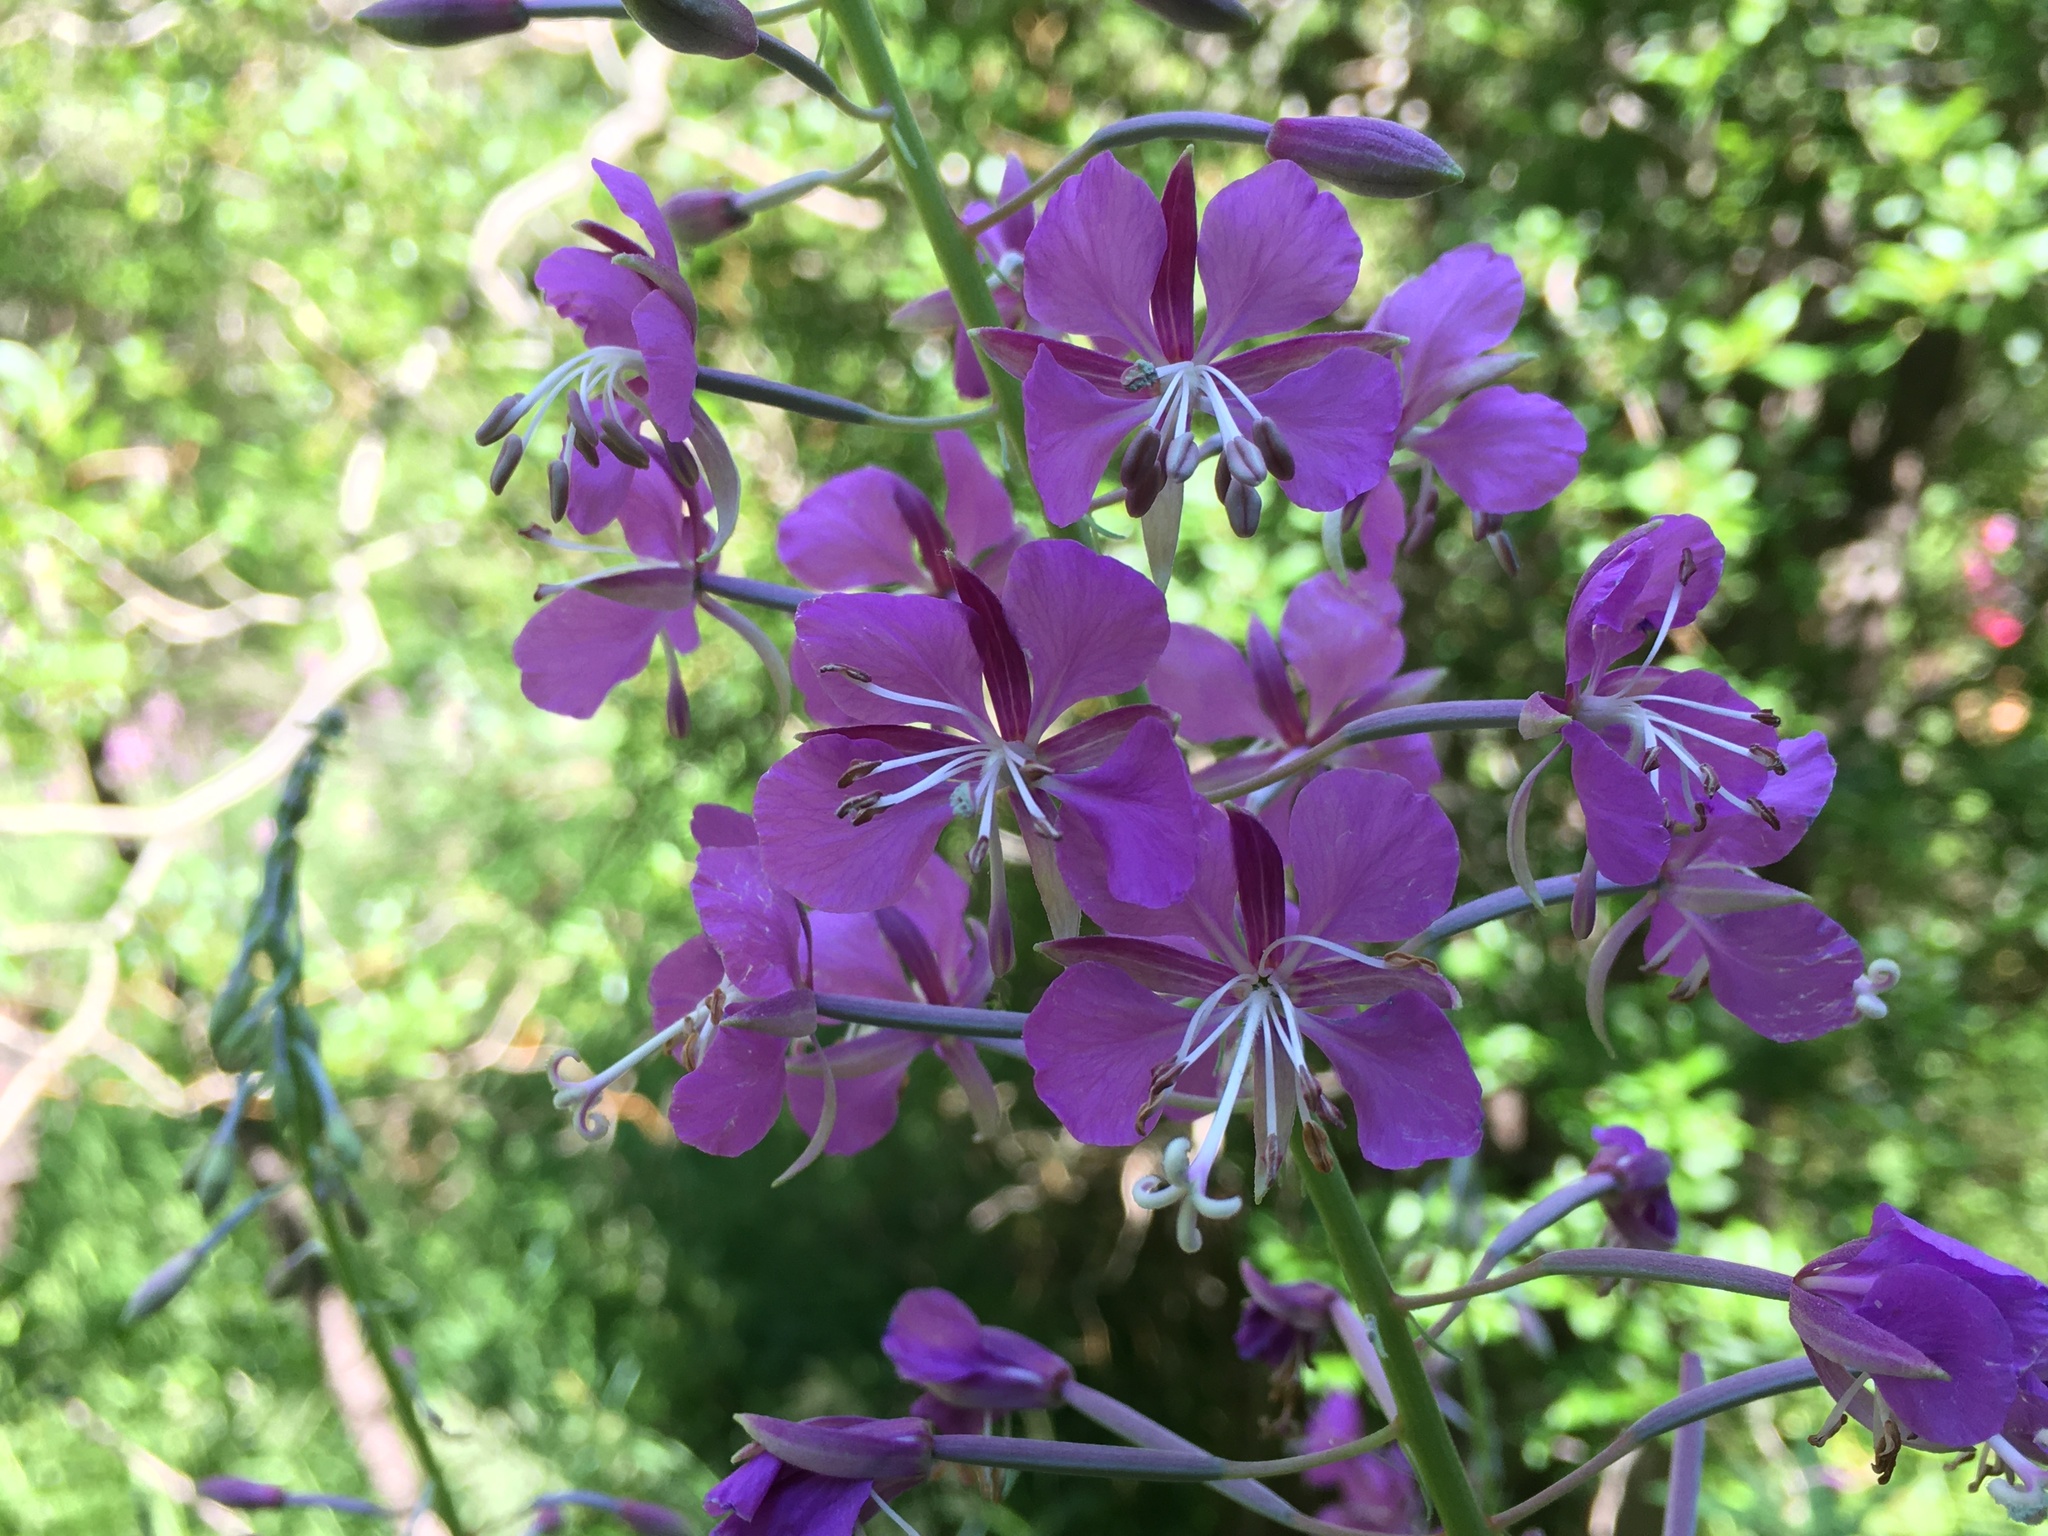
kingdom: Plantae
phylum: Tracheophyta
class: Magnoliopsida
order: Myrtales
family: Onagraceae
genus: Chamaenerion
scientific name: Chamaenerion angustifolium
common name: Fireweed
